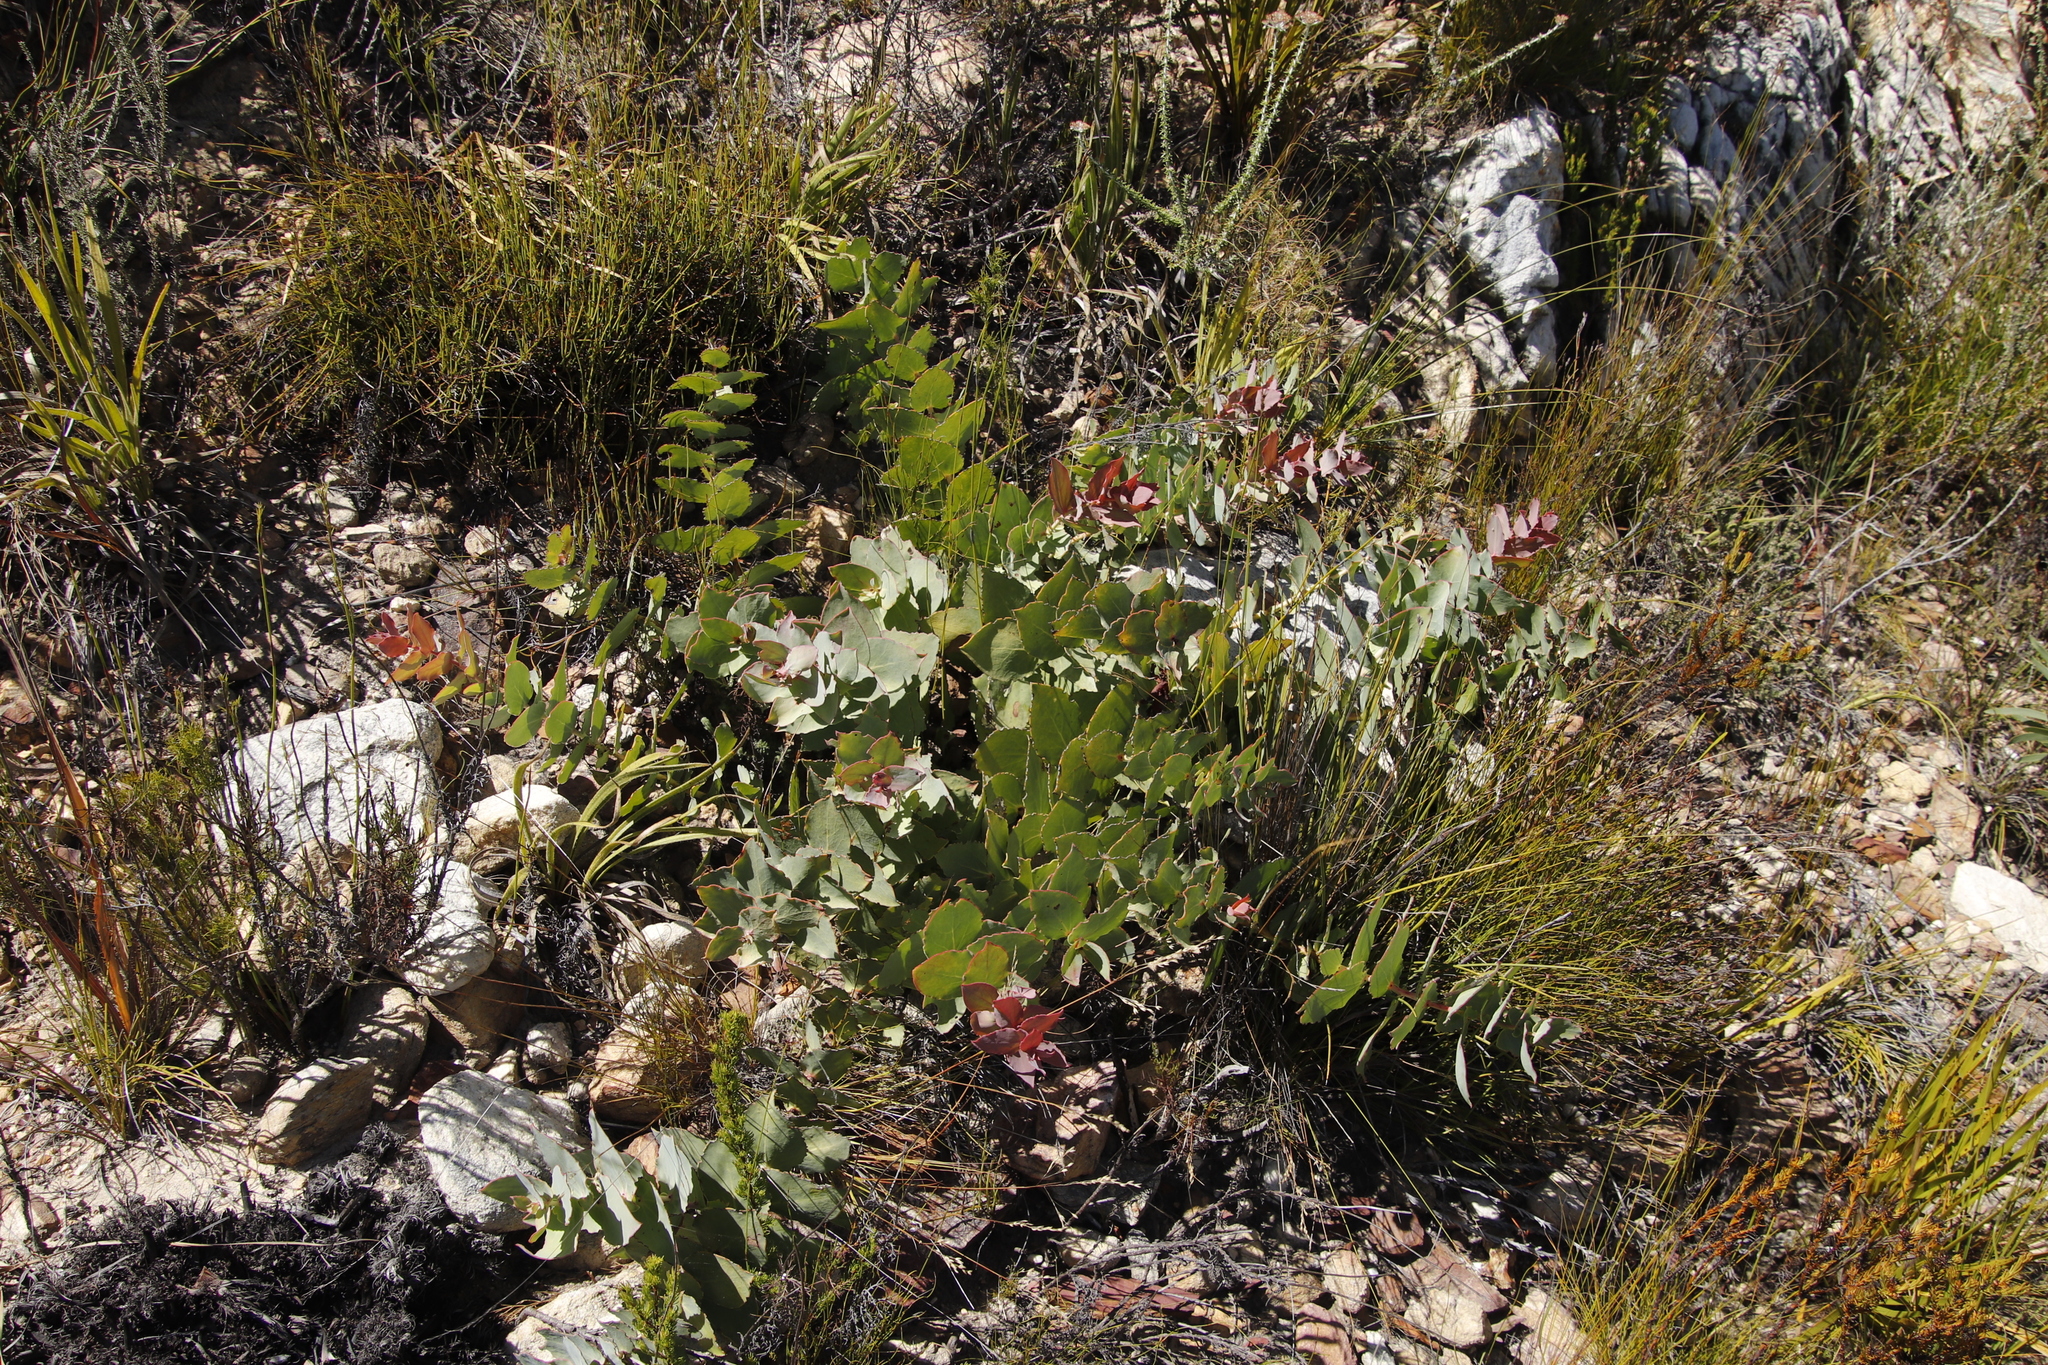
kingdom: Plantae
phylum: Tracheophyta
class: Magnoliopsida
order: Proteales
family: Proteaceae
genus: Protea
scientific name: Protea amplexicaulis
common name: Clasping-leaf sugarbush
